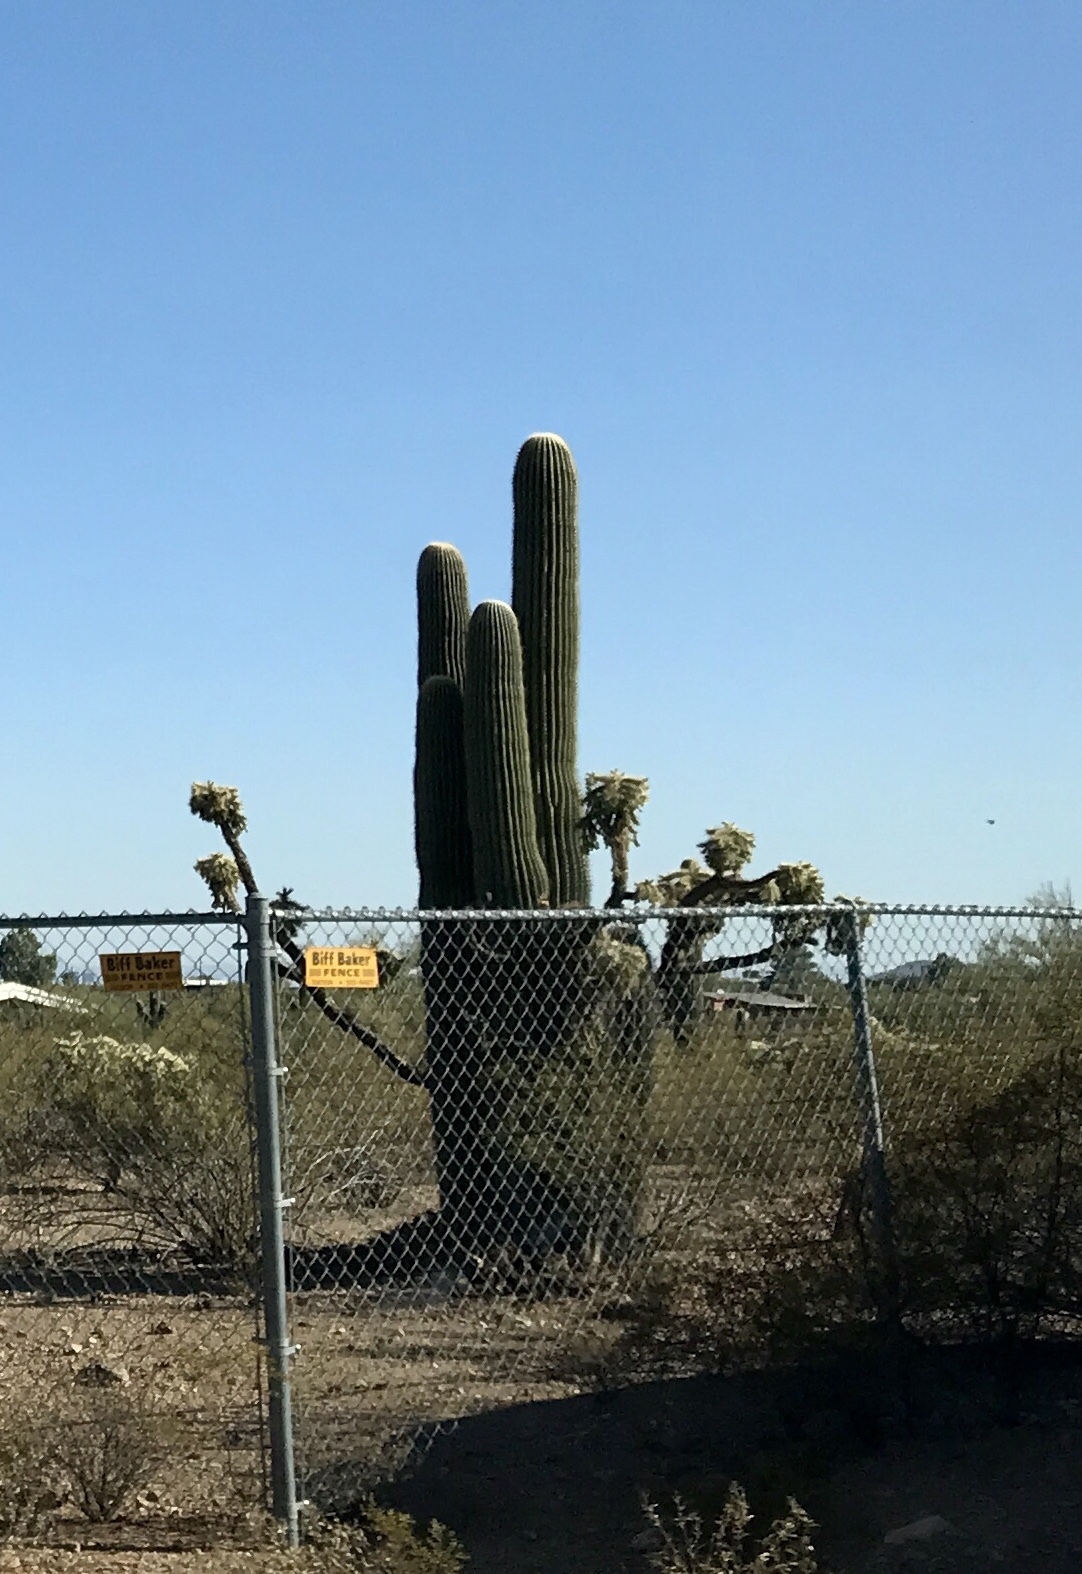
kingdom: Plantae
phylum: Tracheophyta
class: Magnoliopsida
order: Caryophyllales
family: Cactaceae
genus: Carnegiea
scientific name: Carnegiea gigantea
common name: Saguaro
